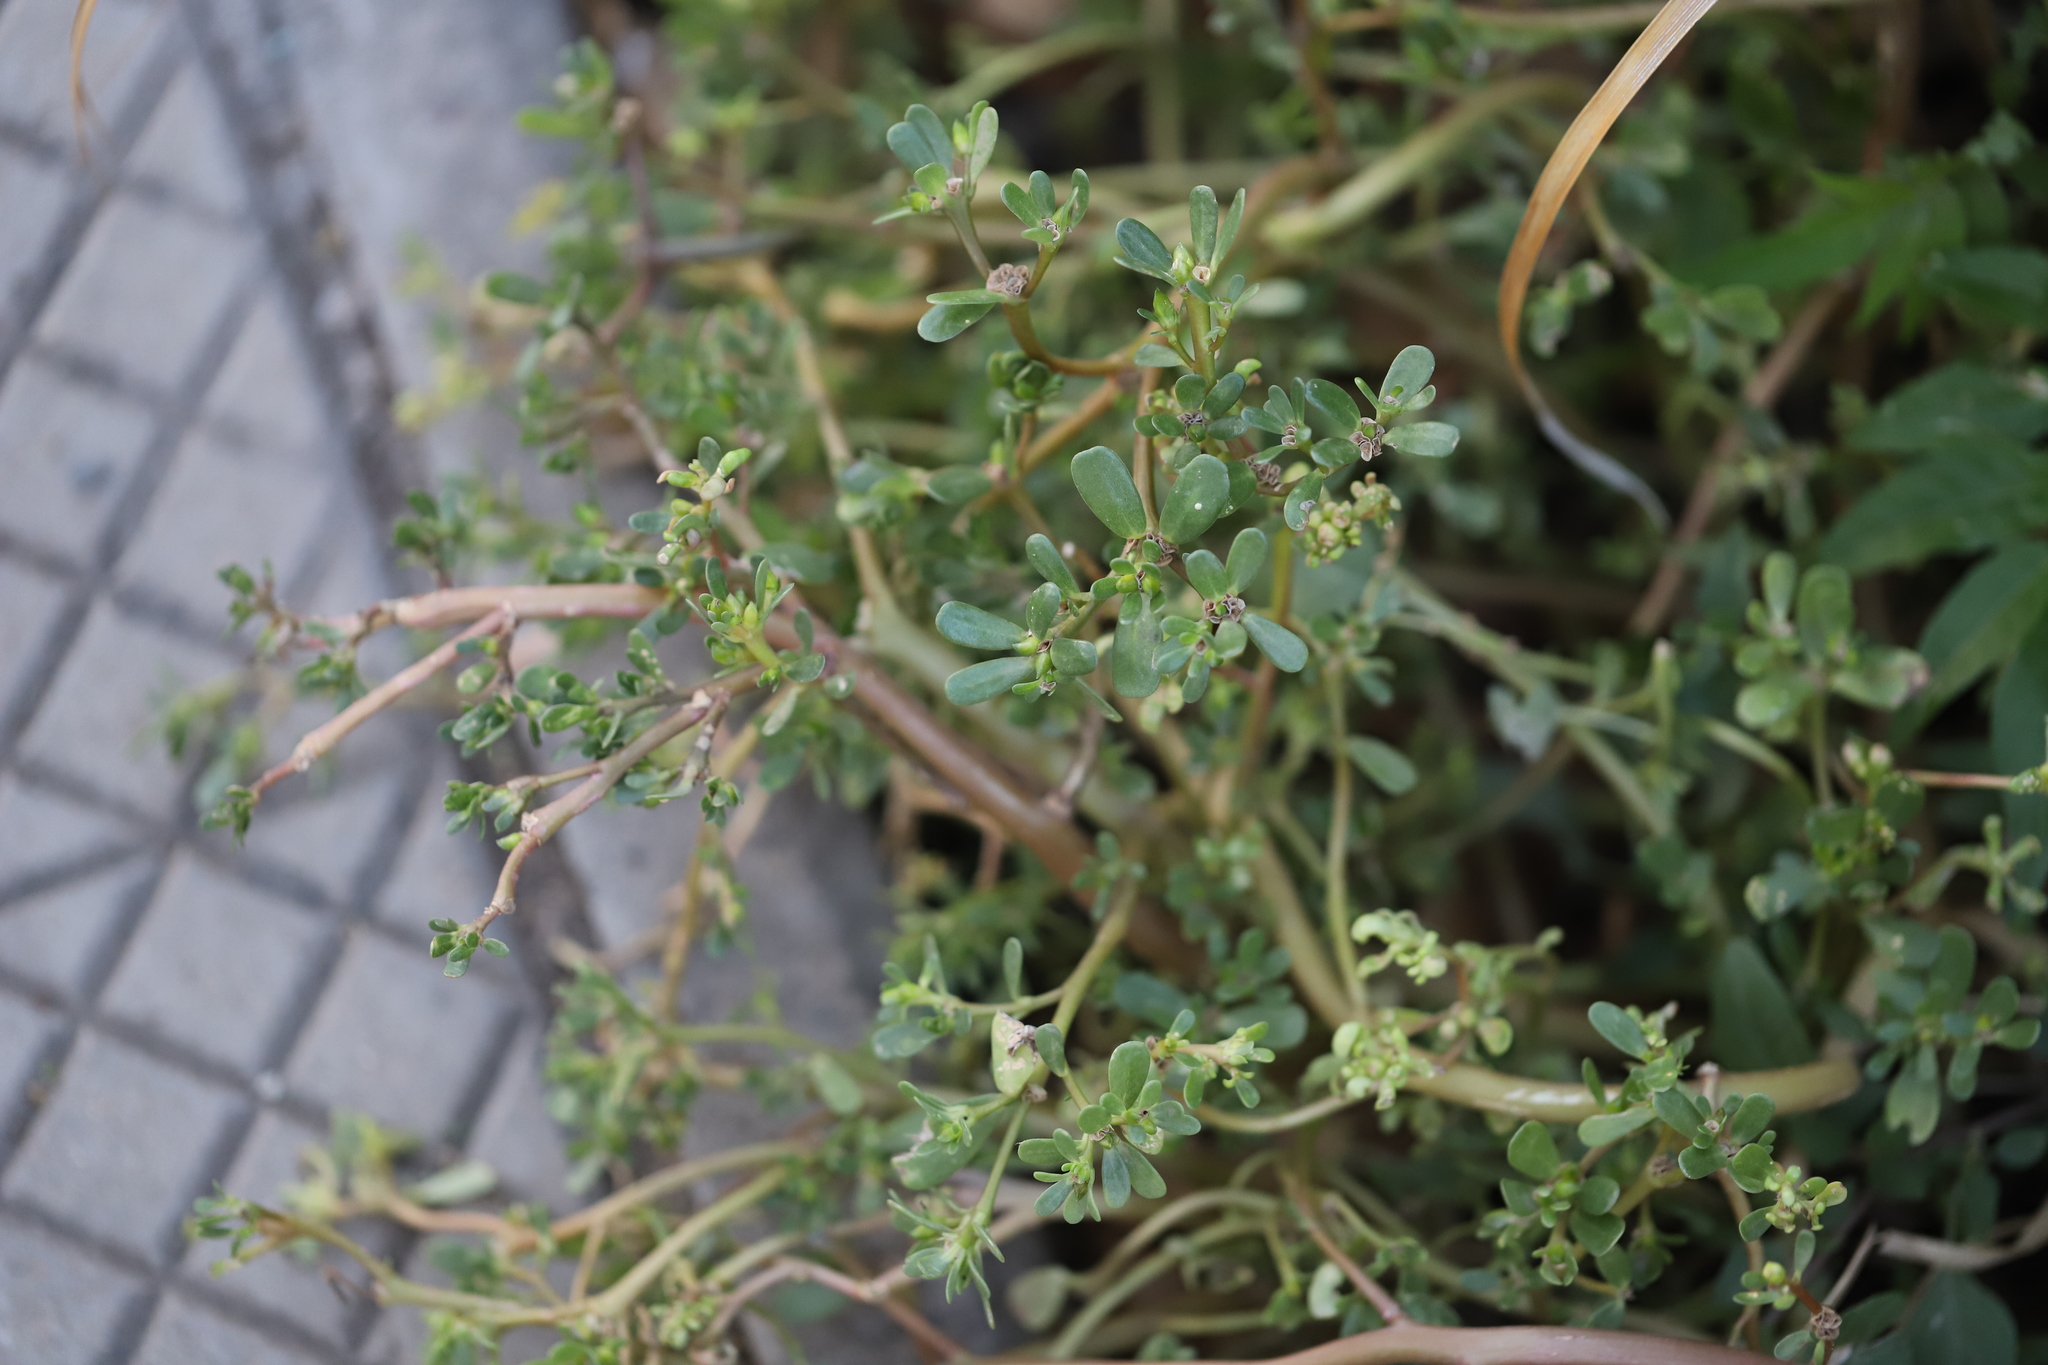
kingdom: Plantae
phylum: Tracheophyta
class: Magnoliopsida
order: Caryophyllales
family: Portulacaceae
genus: Portulaca
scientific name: Portulaca oleracea
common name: Common purslane
